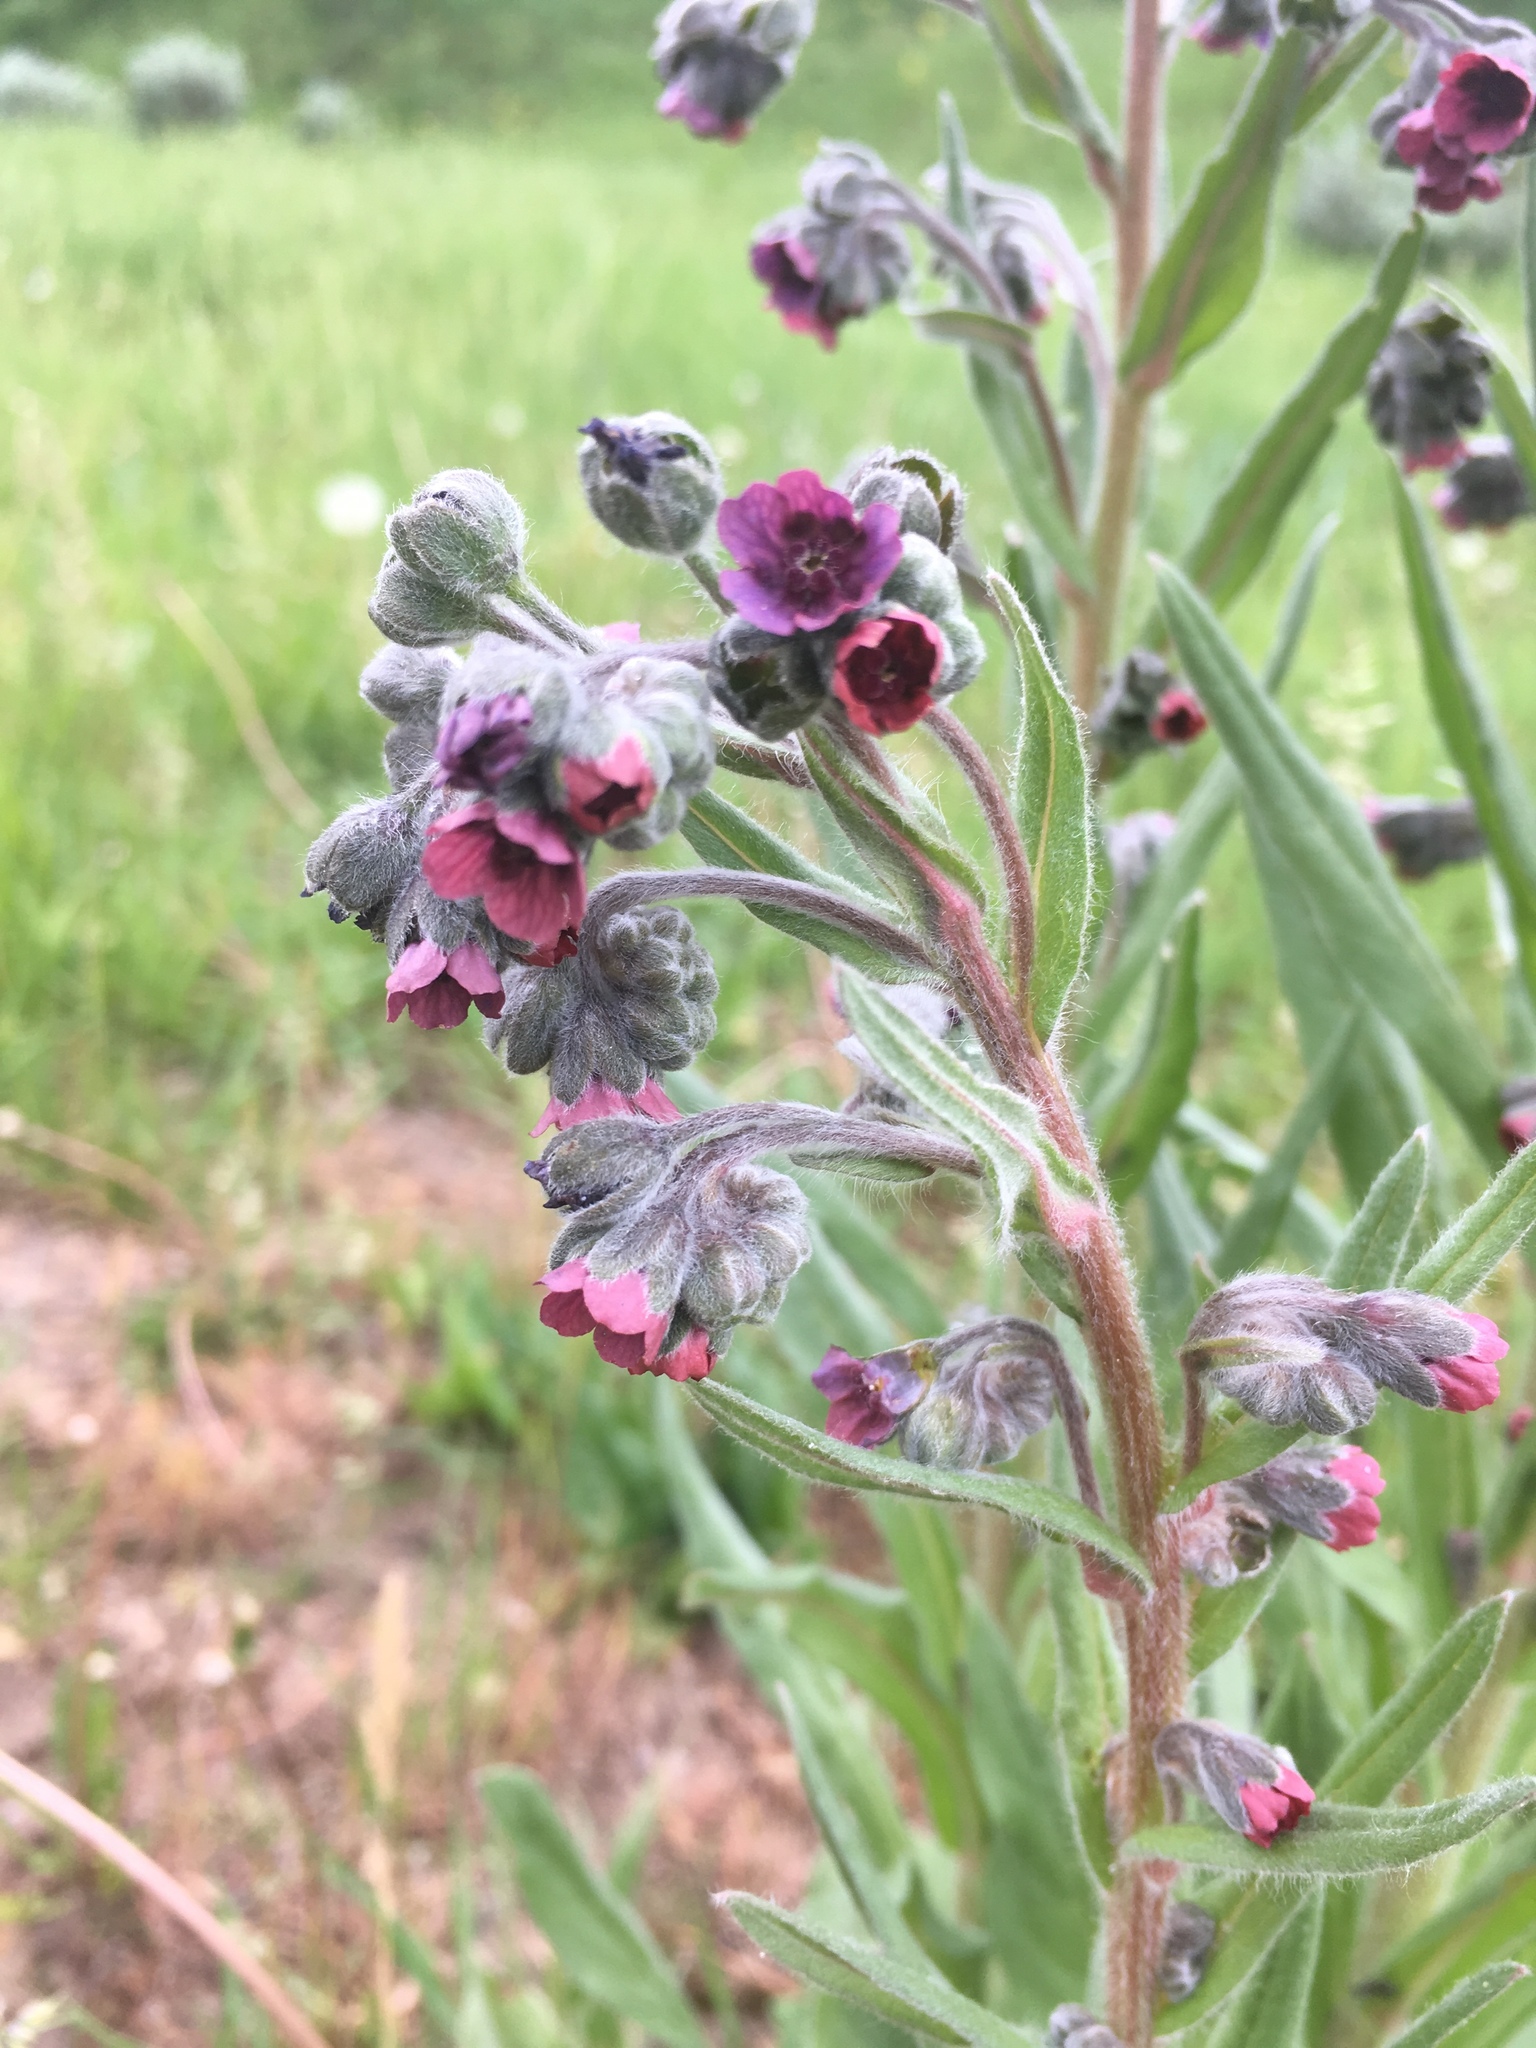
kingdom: Plantae
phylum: Tracheophyta
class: Magnoliopsida
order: Boraginales
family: Boraginaceae
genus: Cynoglossum
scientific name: Cynoglossum officinale
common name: Hound's-tongue
